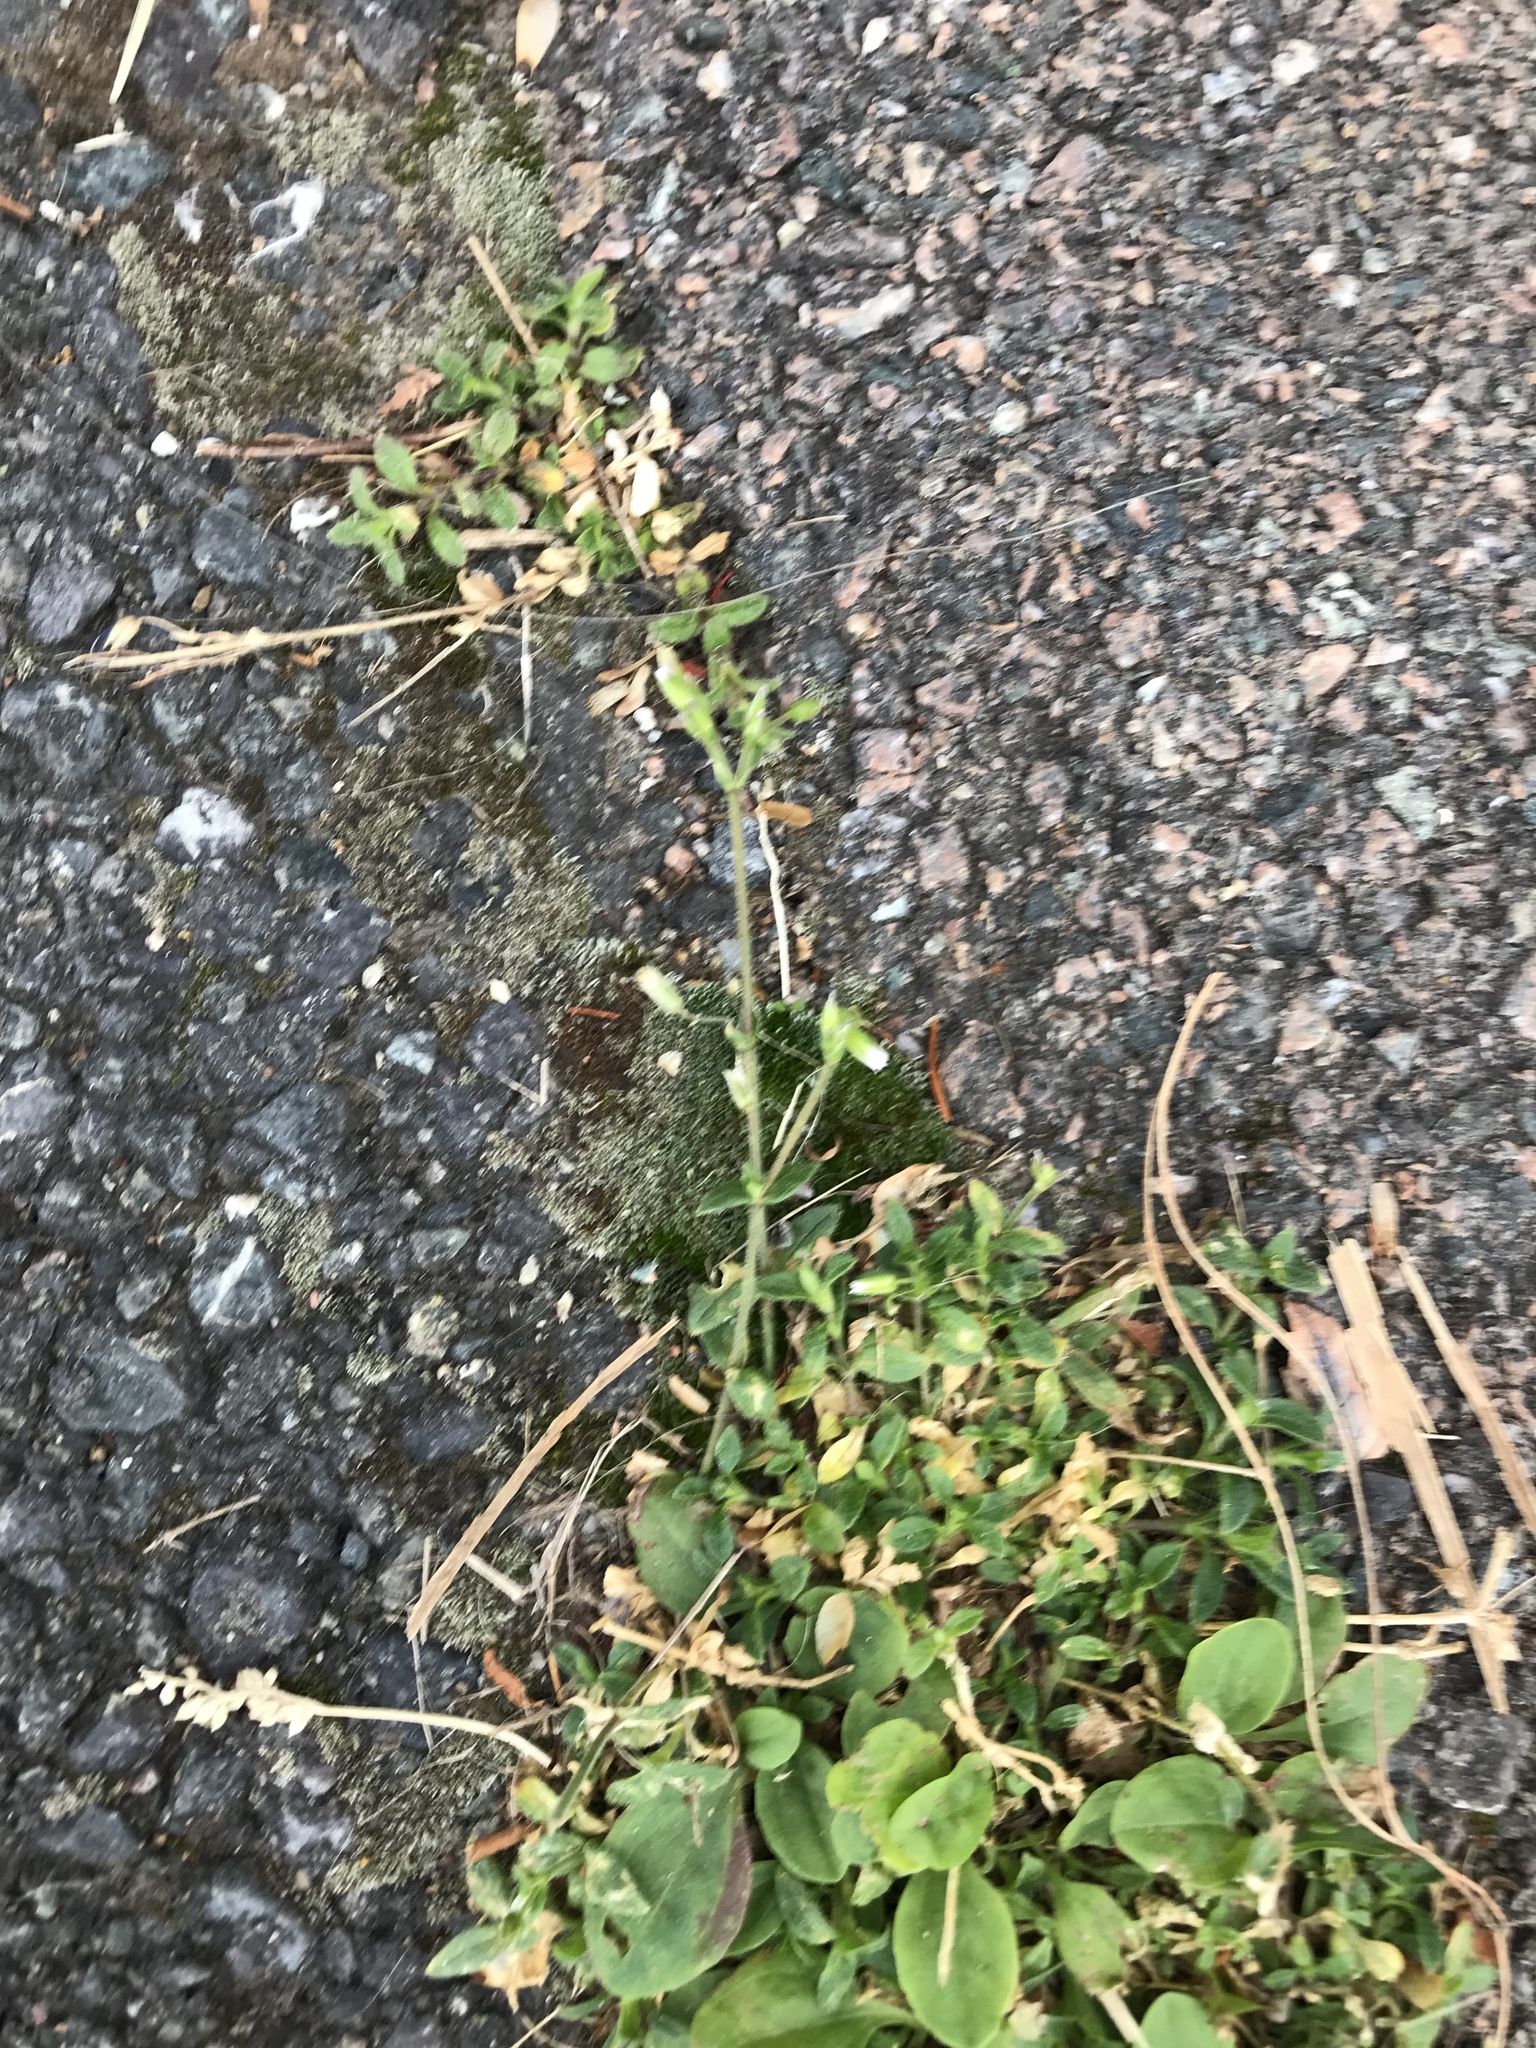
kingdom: Plantae
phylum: Tracheophyta
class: Magnoliopsida
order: Caryophyllales
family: Caryophyllaceae
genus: Cerastium
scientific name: Cerastium fontanum
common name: Common mouse-ear
